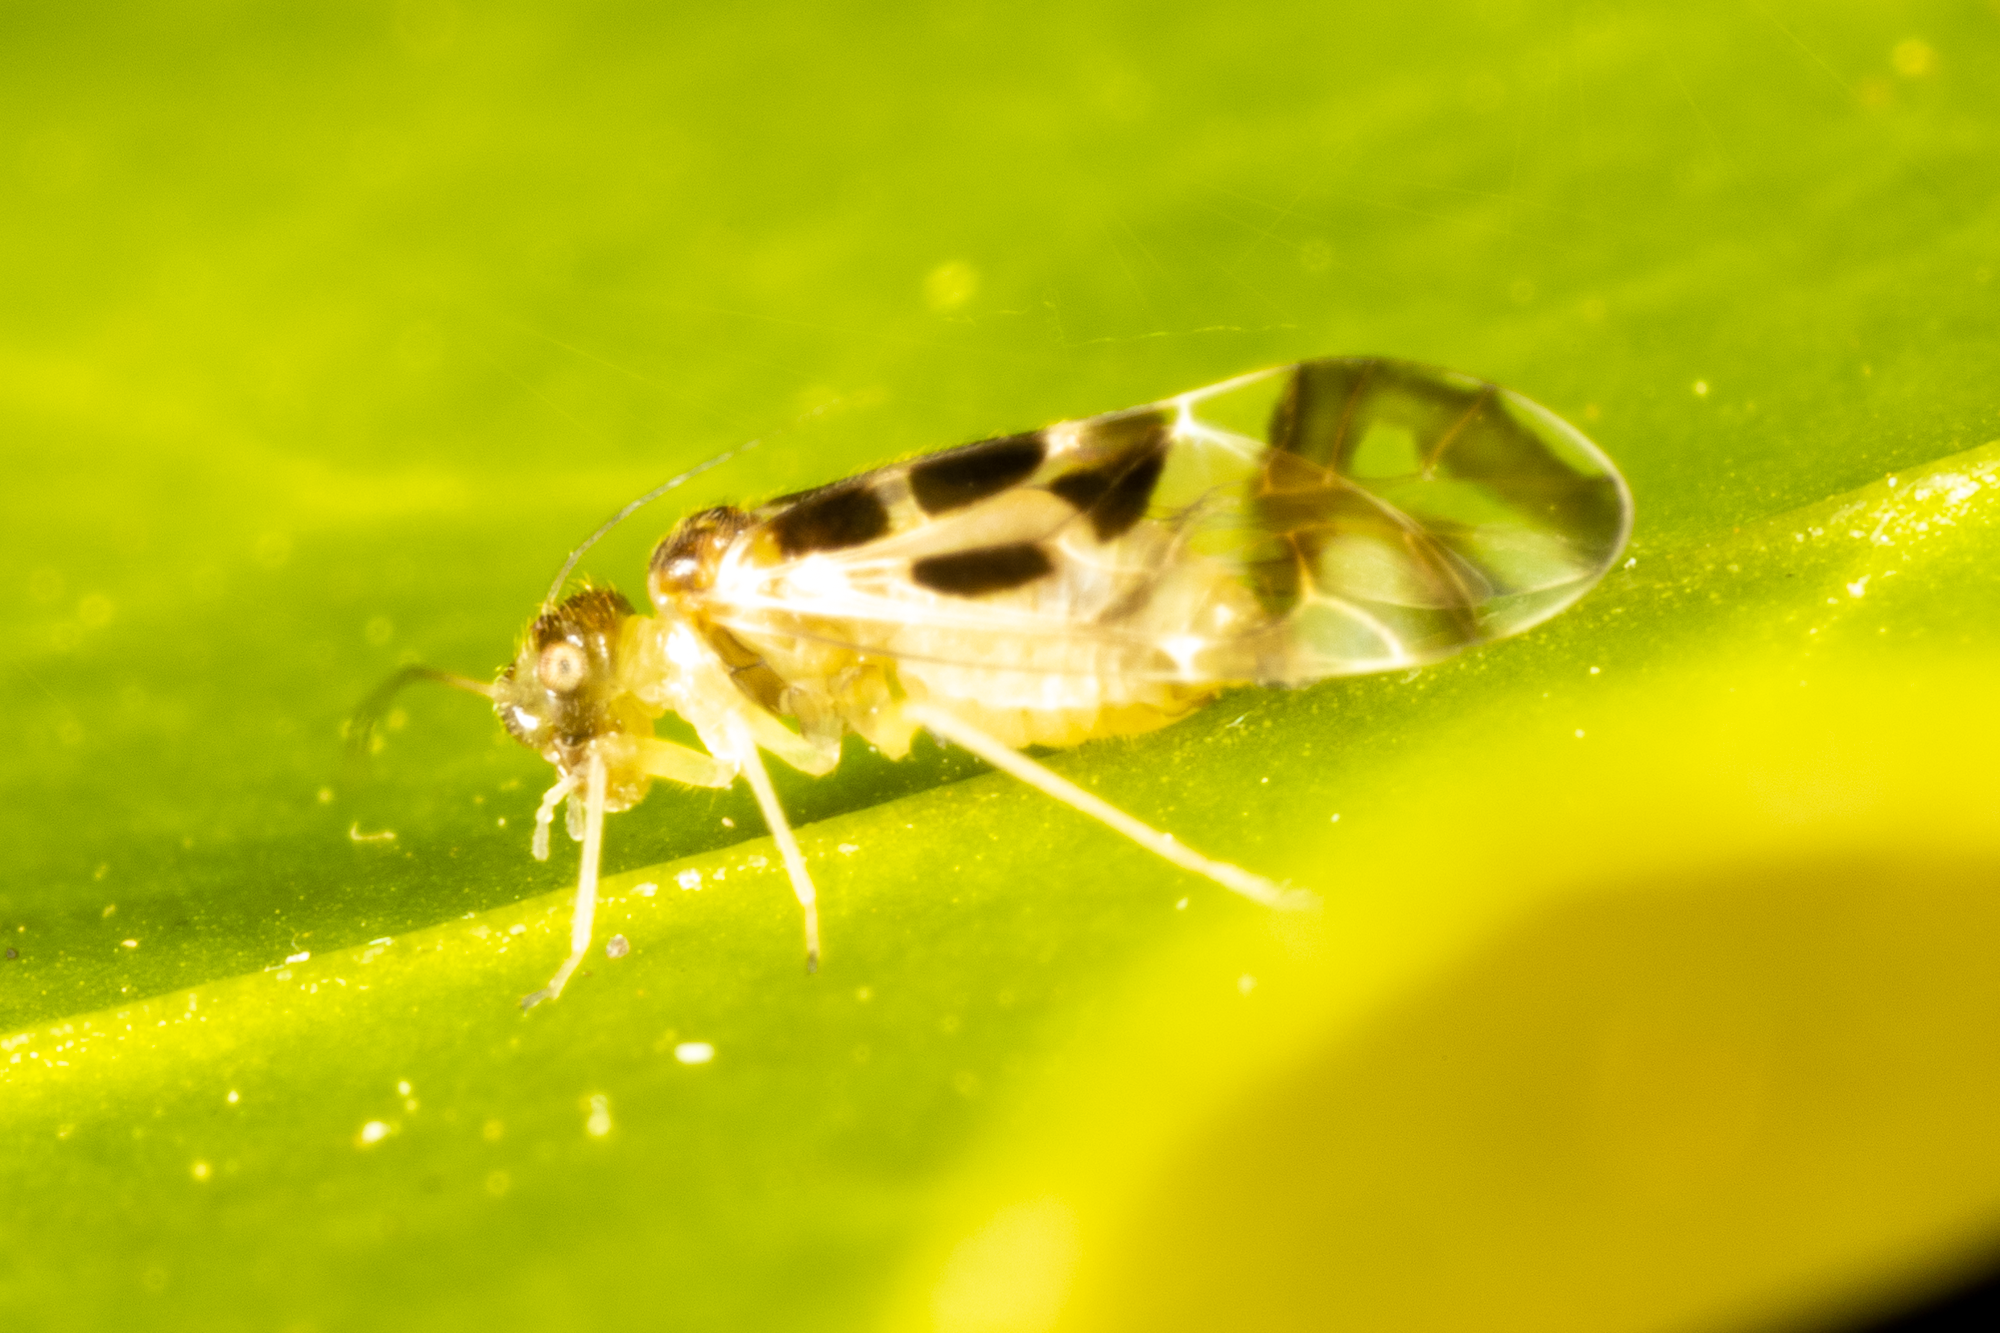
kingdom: Animalia
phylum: Arthropoda
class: Insecta
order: Psocodea
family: Stenopsocidae
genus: Graphopsocus
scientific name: Graphopsocus cruciatus
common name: Lizard bark louse
